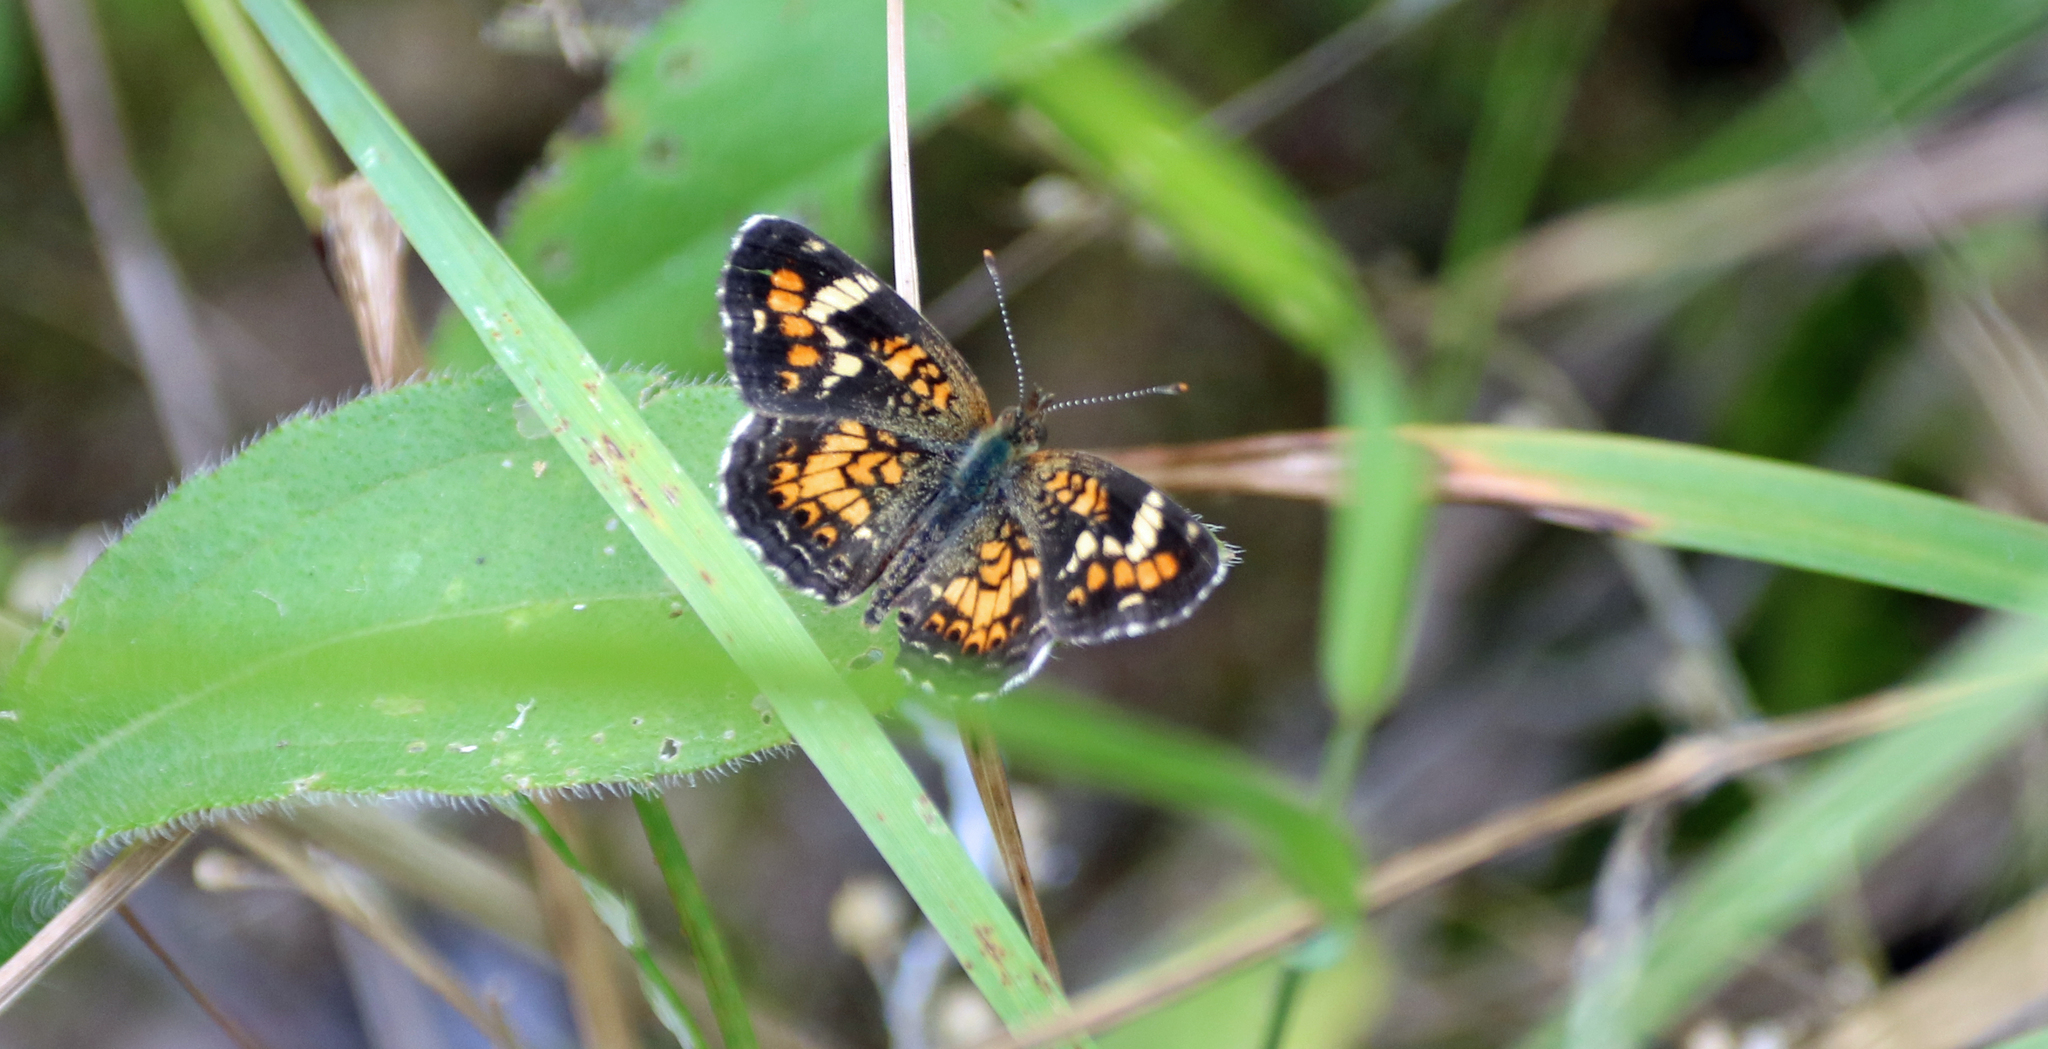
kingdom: Animalia
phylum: Arthropoda
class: Insecta
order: Lepidoptera
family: Nymphalidae
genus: Phyciodes
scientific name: Phyciodes phaon
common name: Phaon crescent
